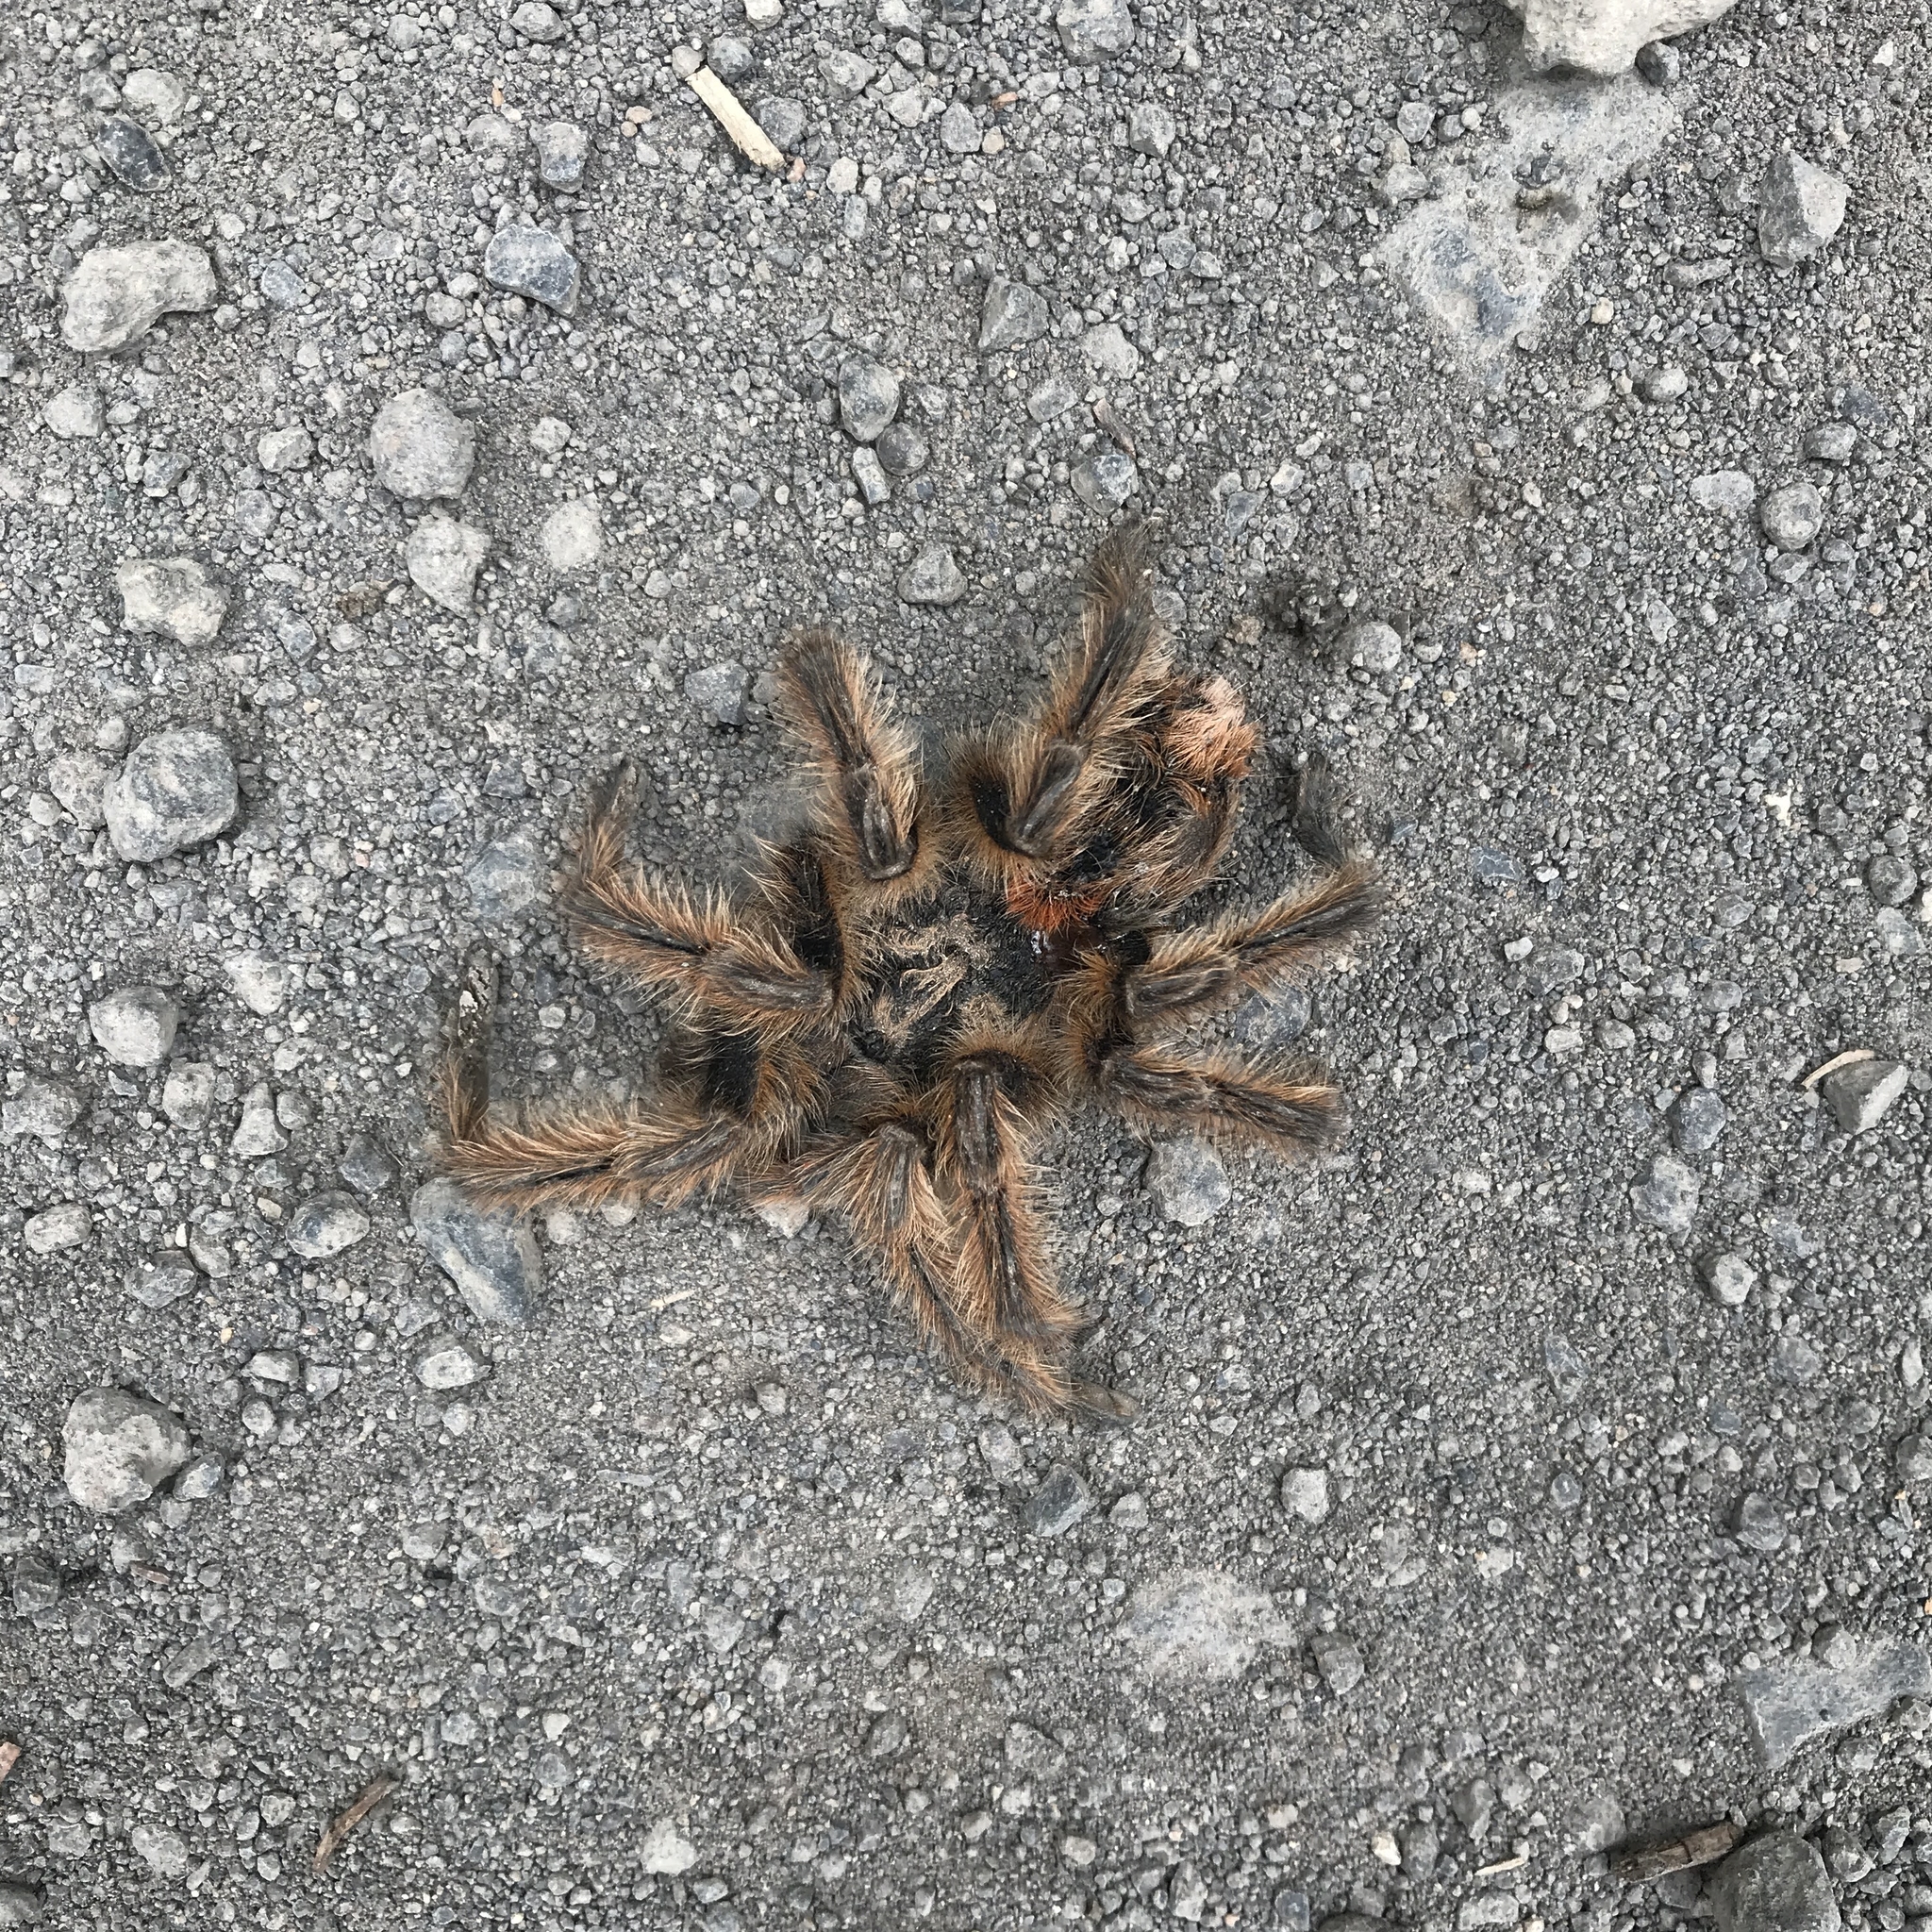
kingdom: Animalia
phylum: Arthropoda
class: Arachnida
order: Araneae
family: Theraphosidae
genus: Phrixotrichus
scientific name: Phrixotrichus vulpinus
